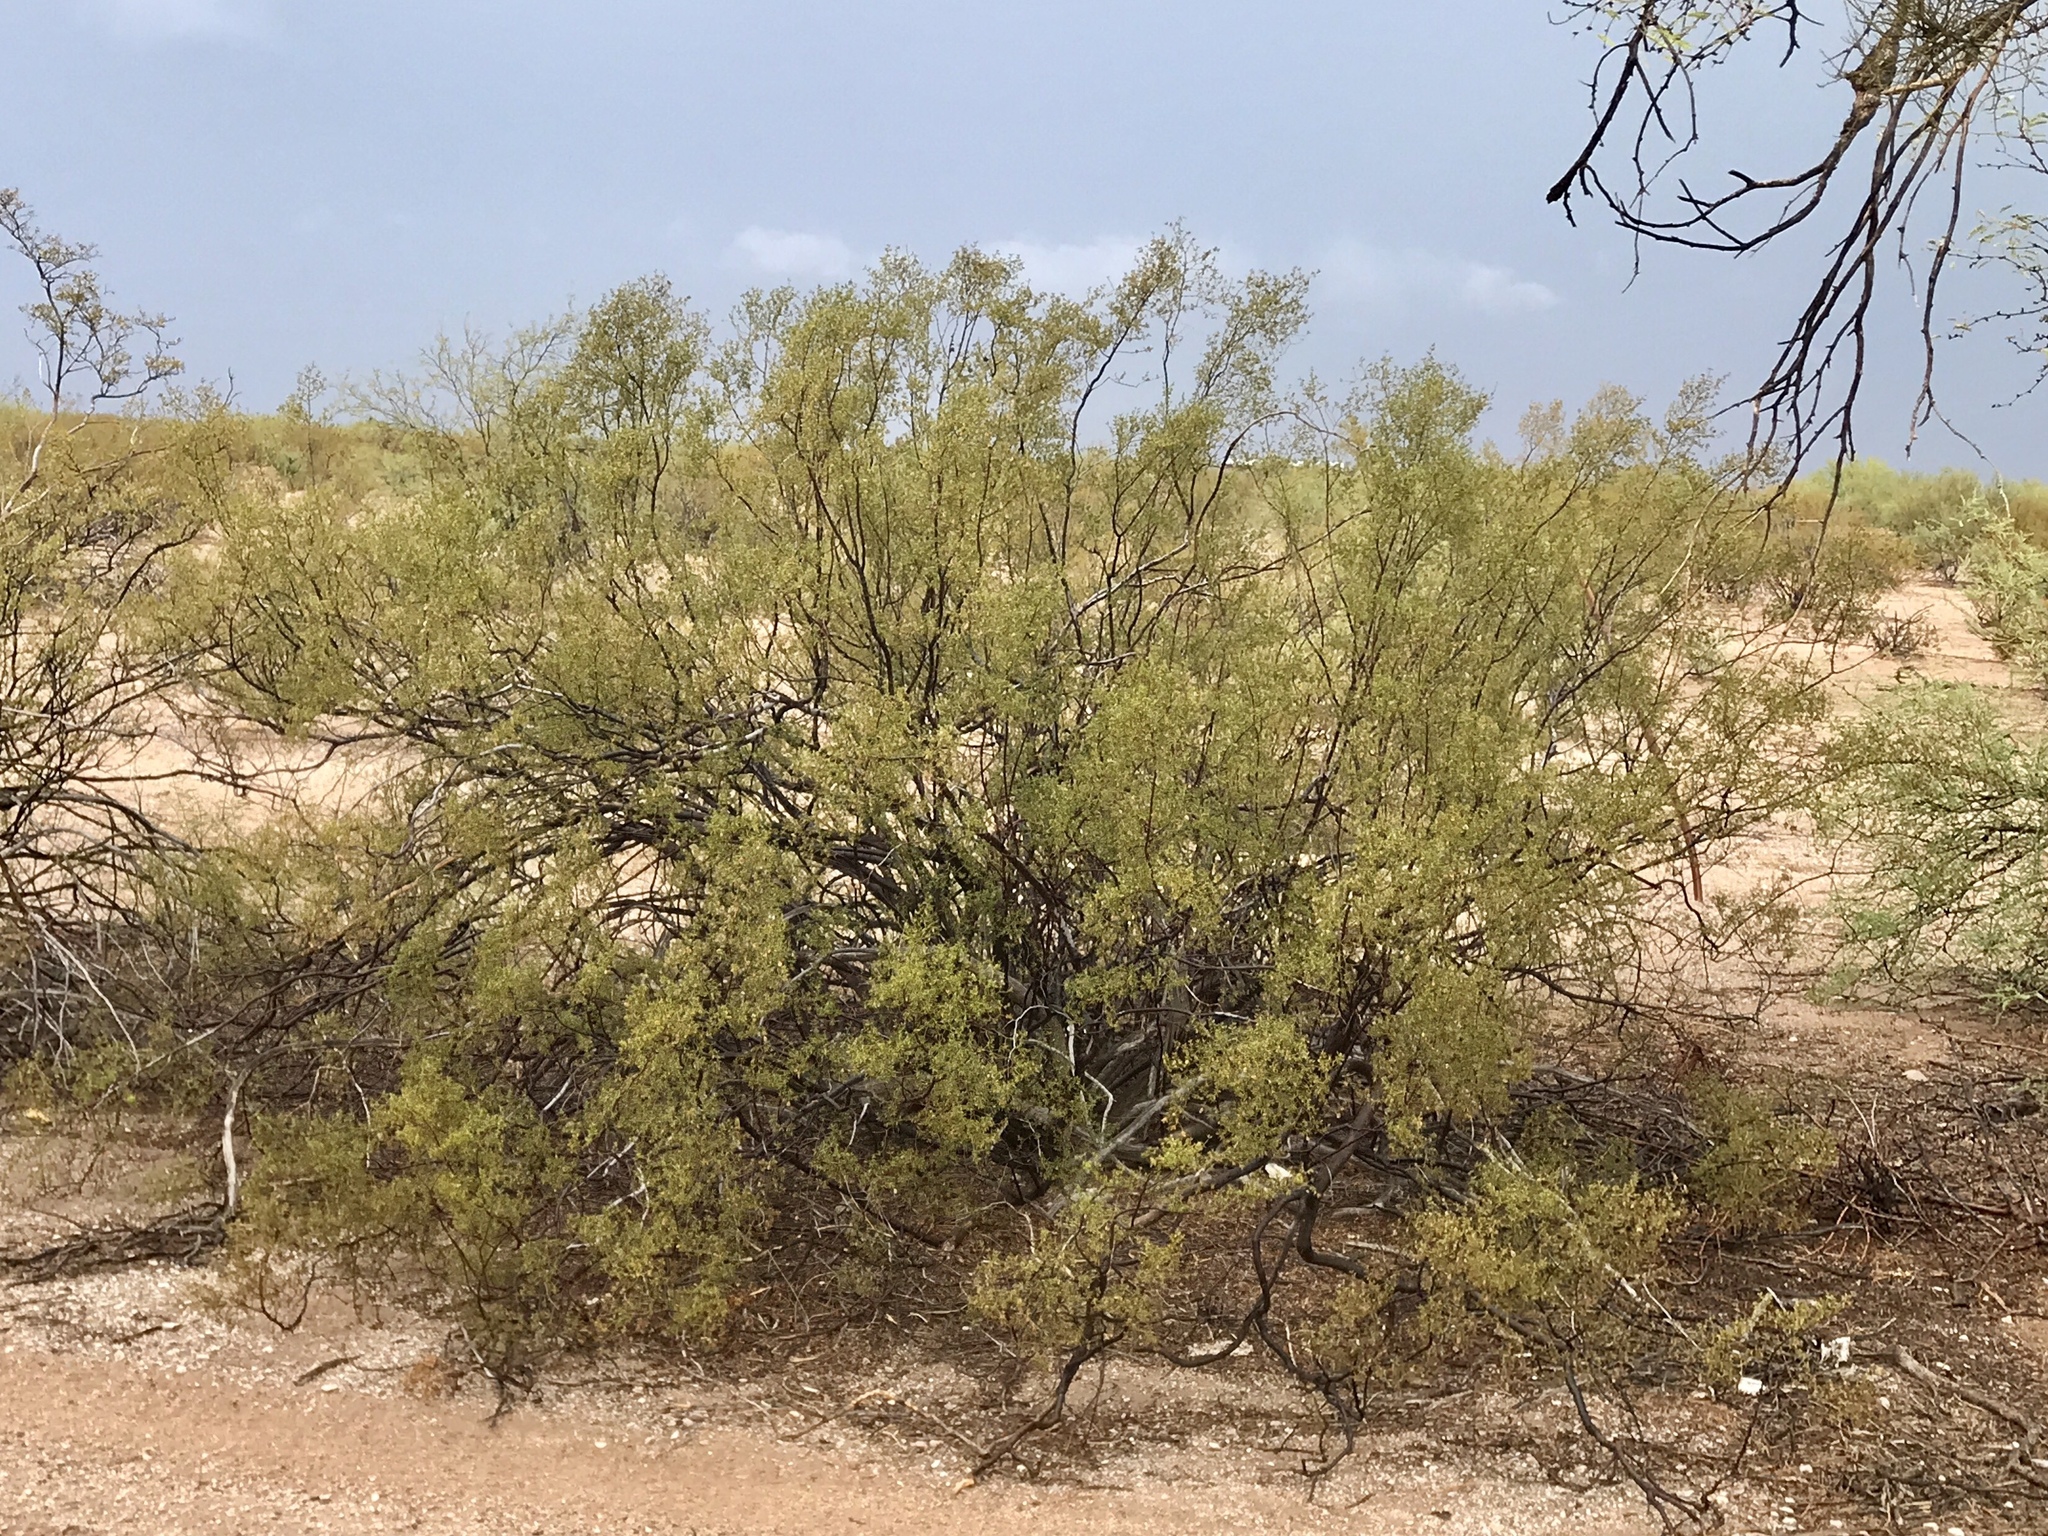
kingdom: Plantae
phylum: Tracheophyta
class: Magnoliopsida
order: Zygophyllales
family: Zygophyllaceae
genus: Larrea
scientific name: Larrea tridentata
